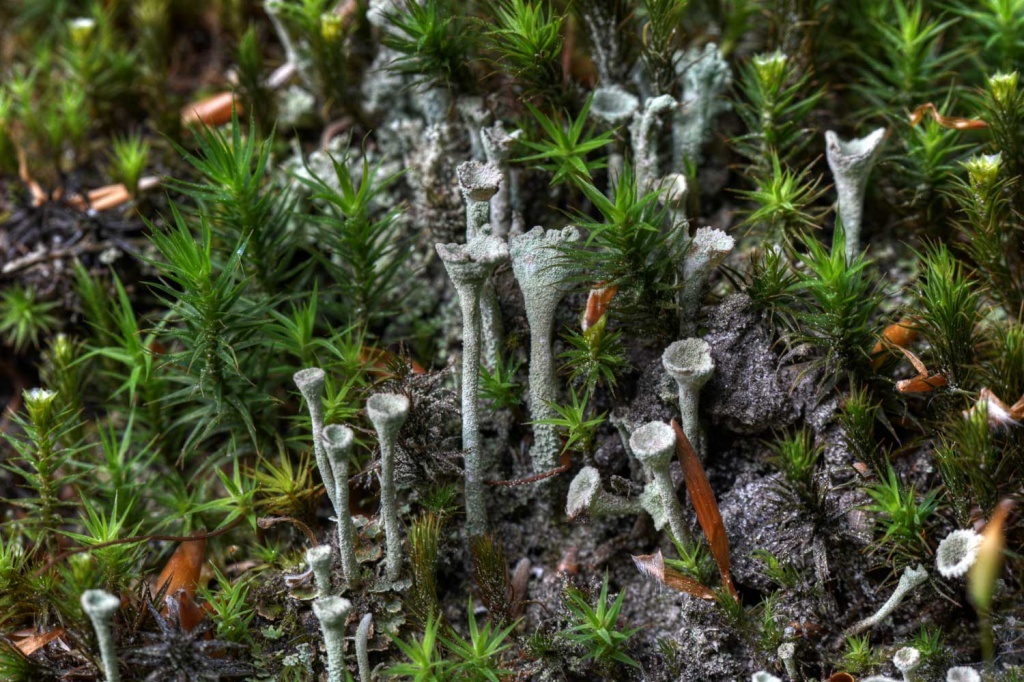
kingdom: Fungi
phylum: Ascomycota
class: Lecanoromycetes
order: Lecanorales
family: Cladoniaceae
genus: Cladonia
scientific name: Cladonia fimbriata
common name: Powdered trumpet lichen
